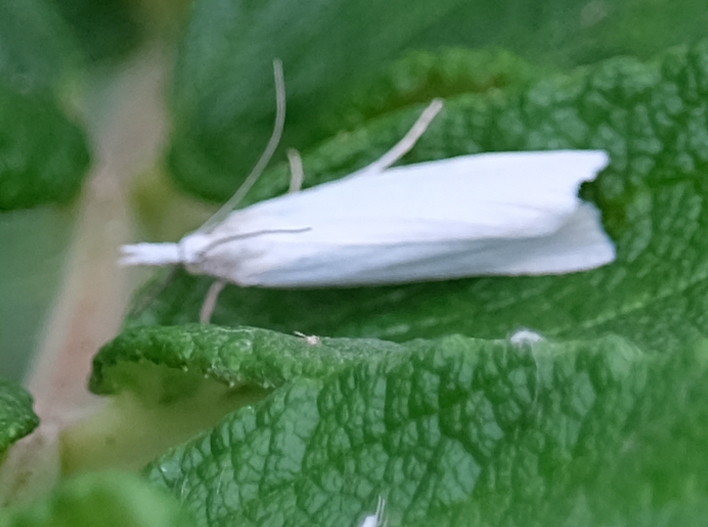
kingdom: Animalia
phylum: Arthropoda
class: Insecta
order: Lepidoptera
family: Crambidae
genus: Crambus
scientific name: Crambus perlellus
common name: Yellow satin veneer
